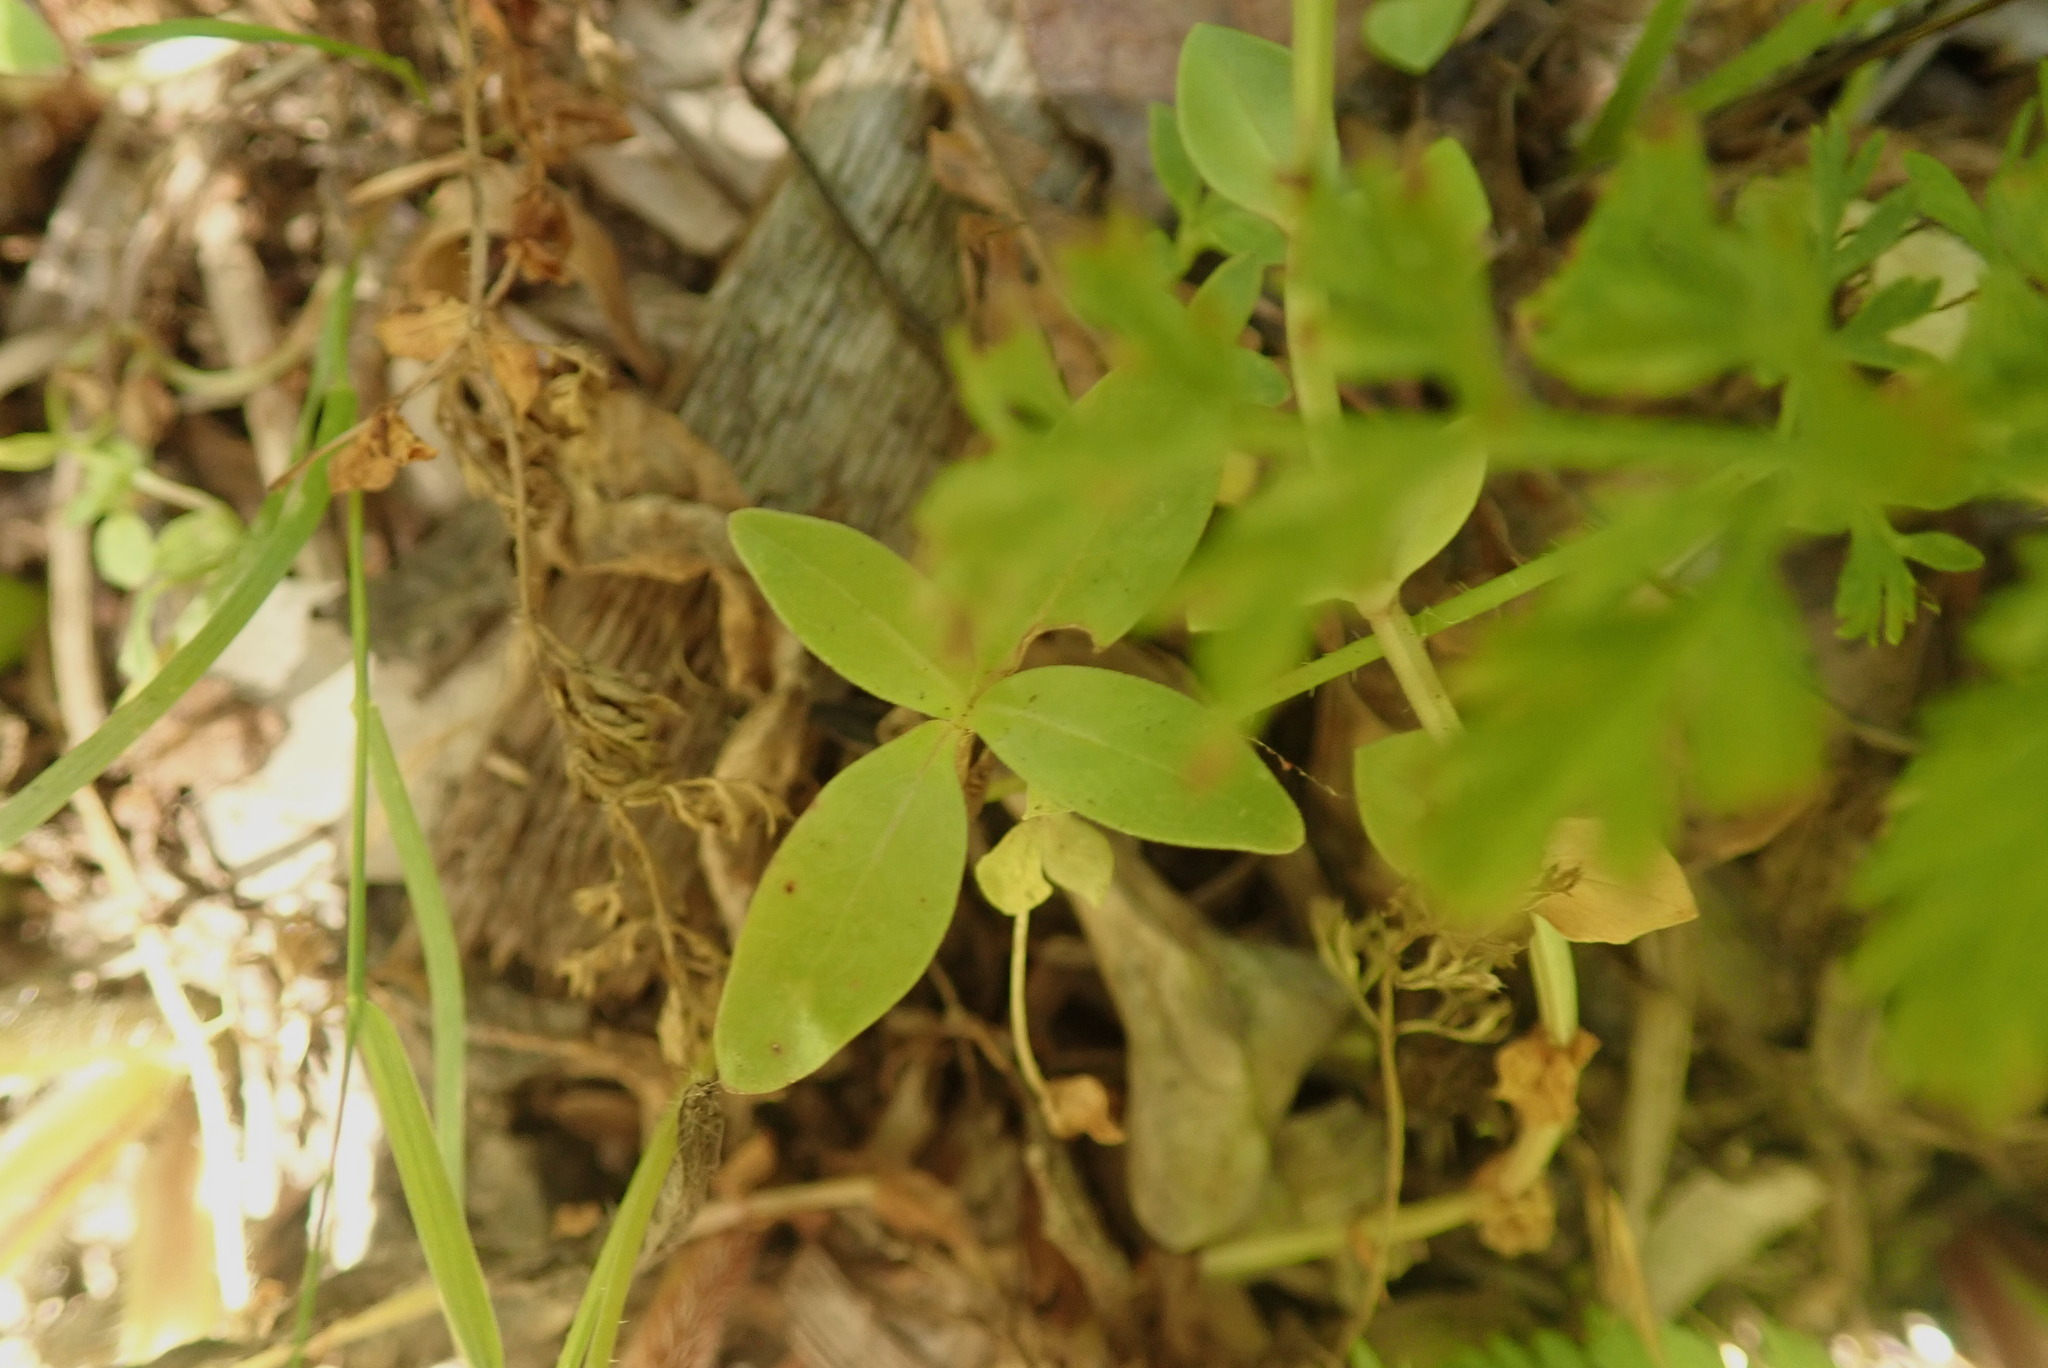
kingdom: Plantae
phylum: Tracheophyta
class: Magnoliopsida
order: Gentianales
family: Rubiaceae
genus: Coprosma
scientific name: Coprosma robusta
